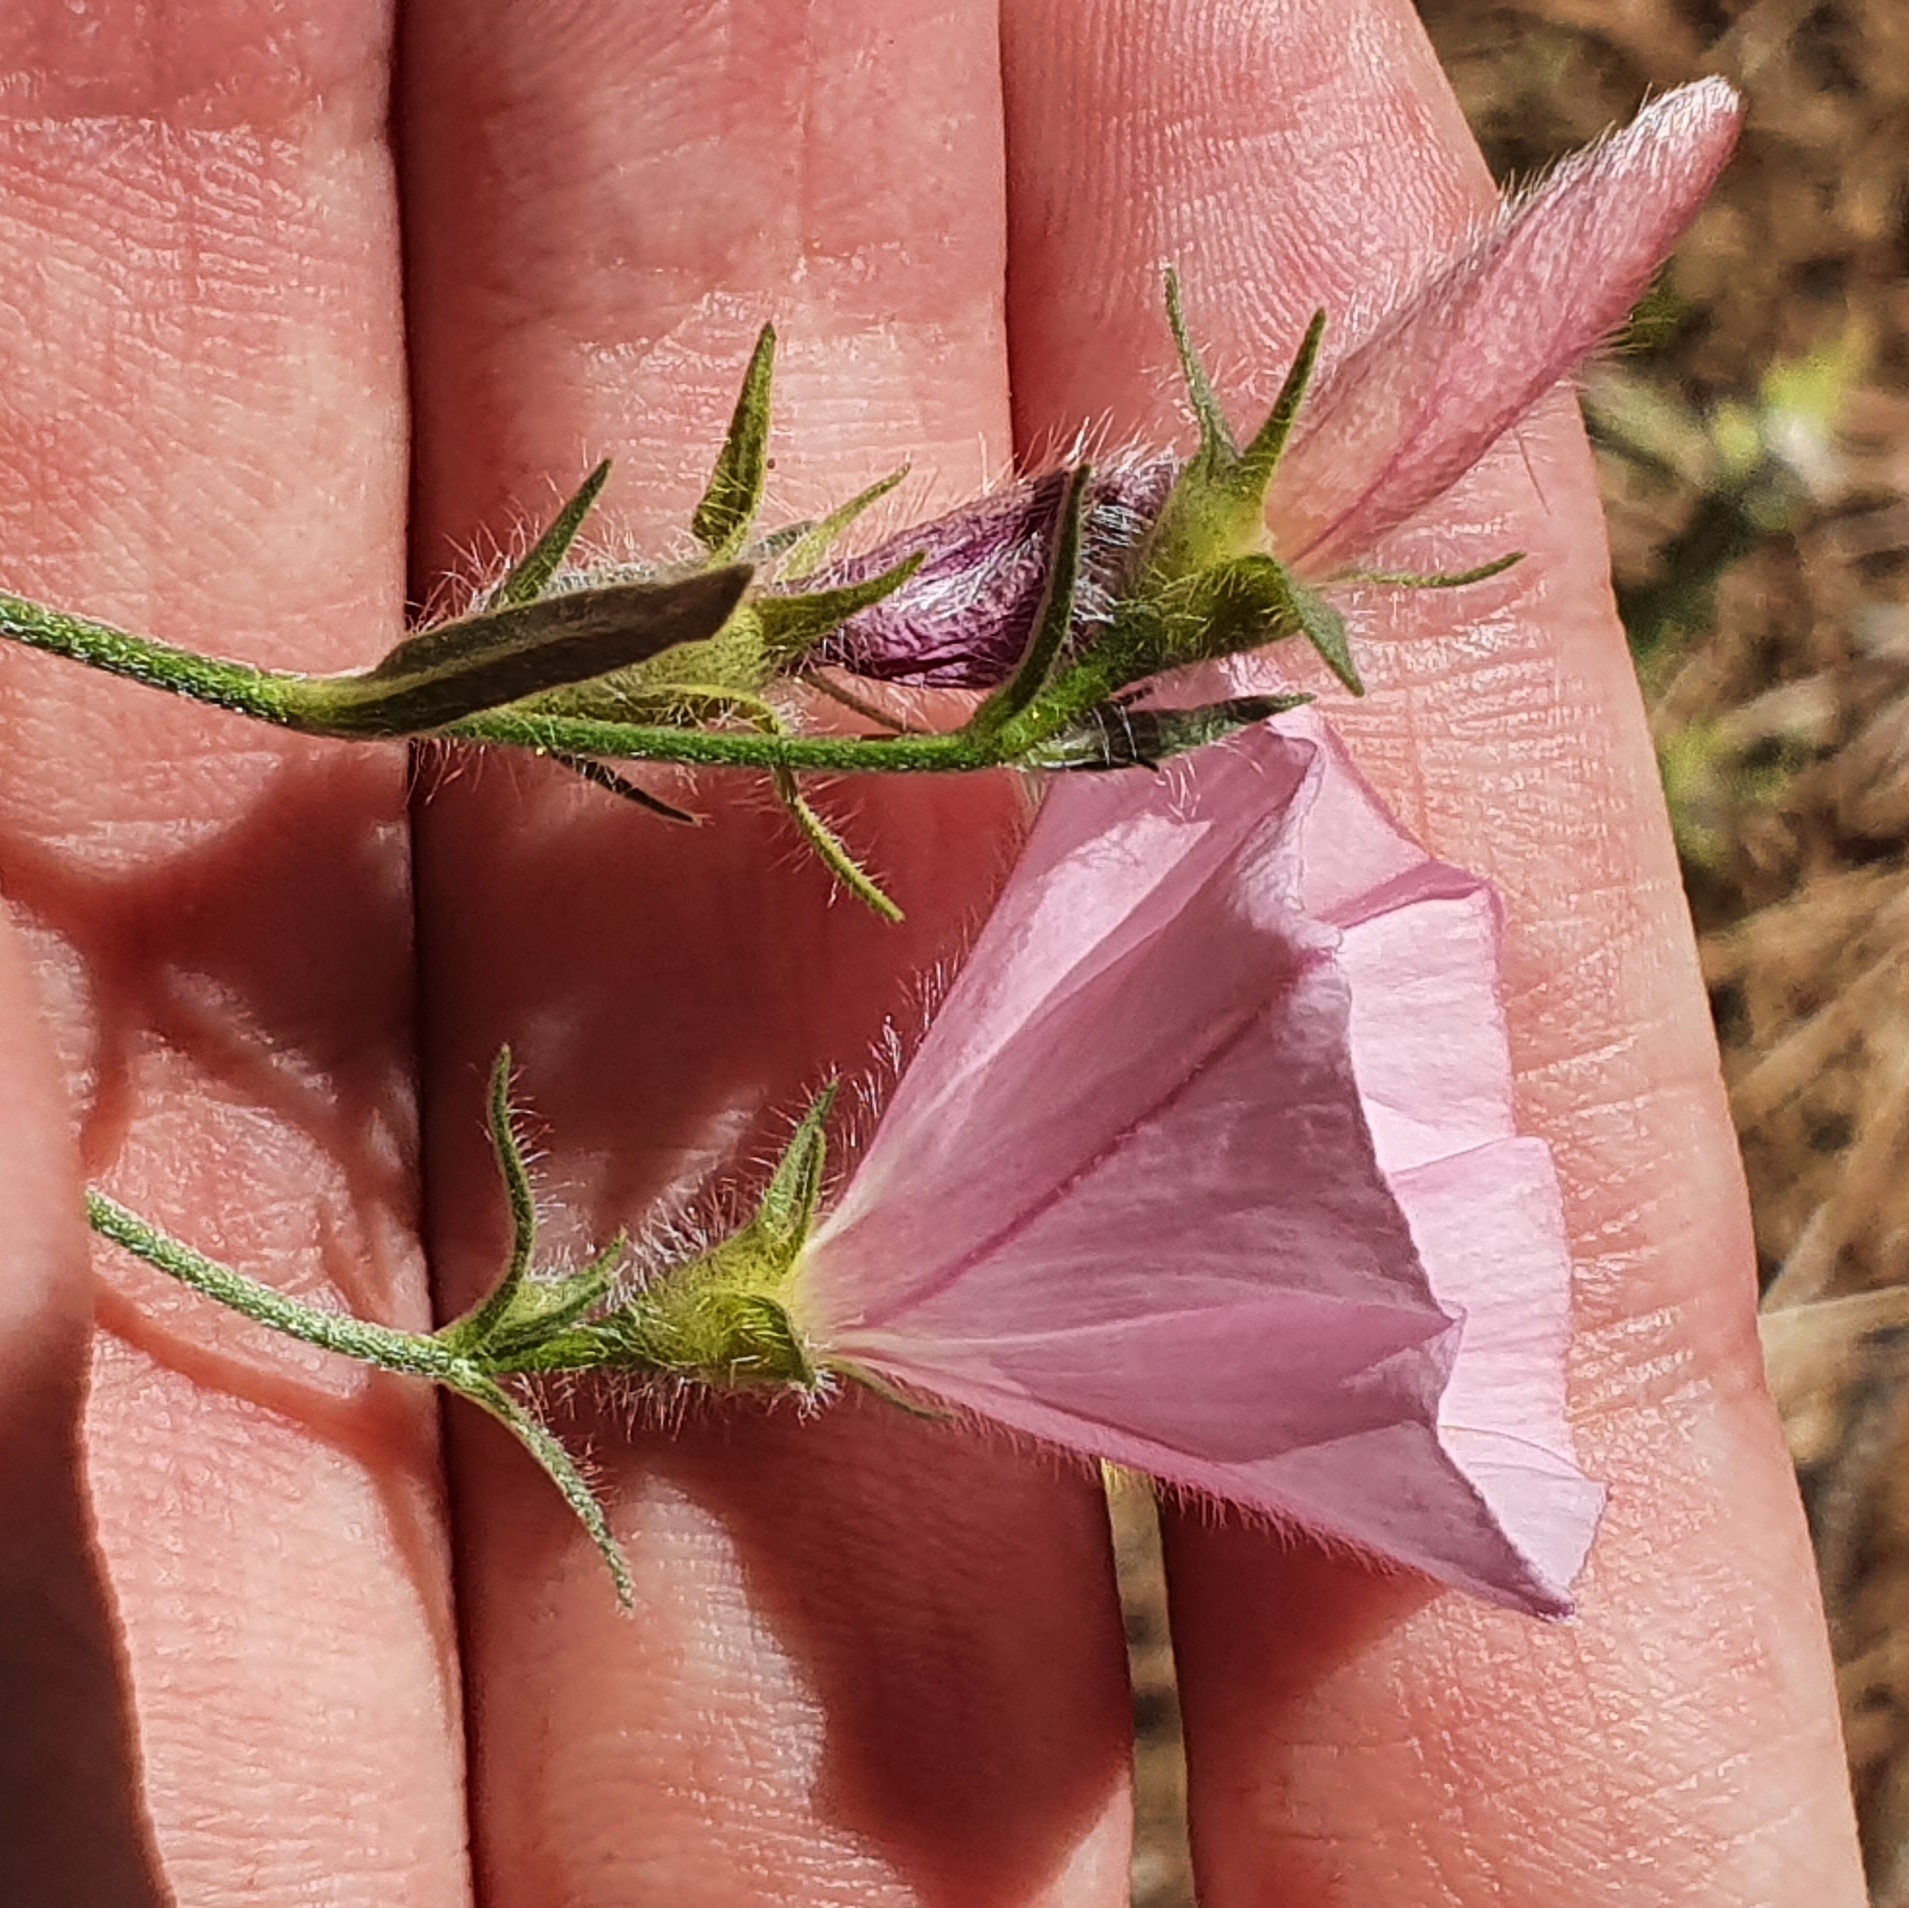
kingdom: Plantae
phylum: Tracheophyta
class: Magnoliopsida
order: Solanales
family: Convolvulaceae
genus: Convolvulus
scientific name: Convolvulus cantabrica
